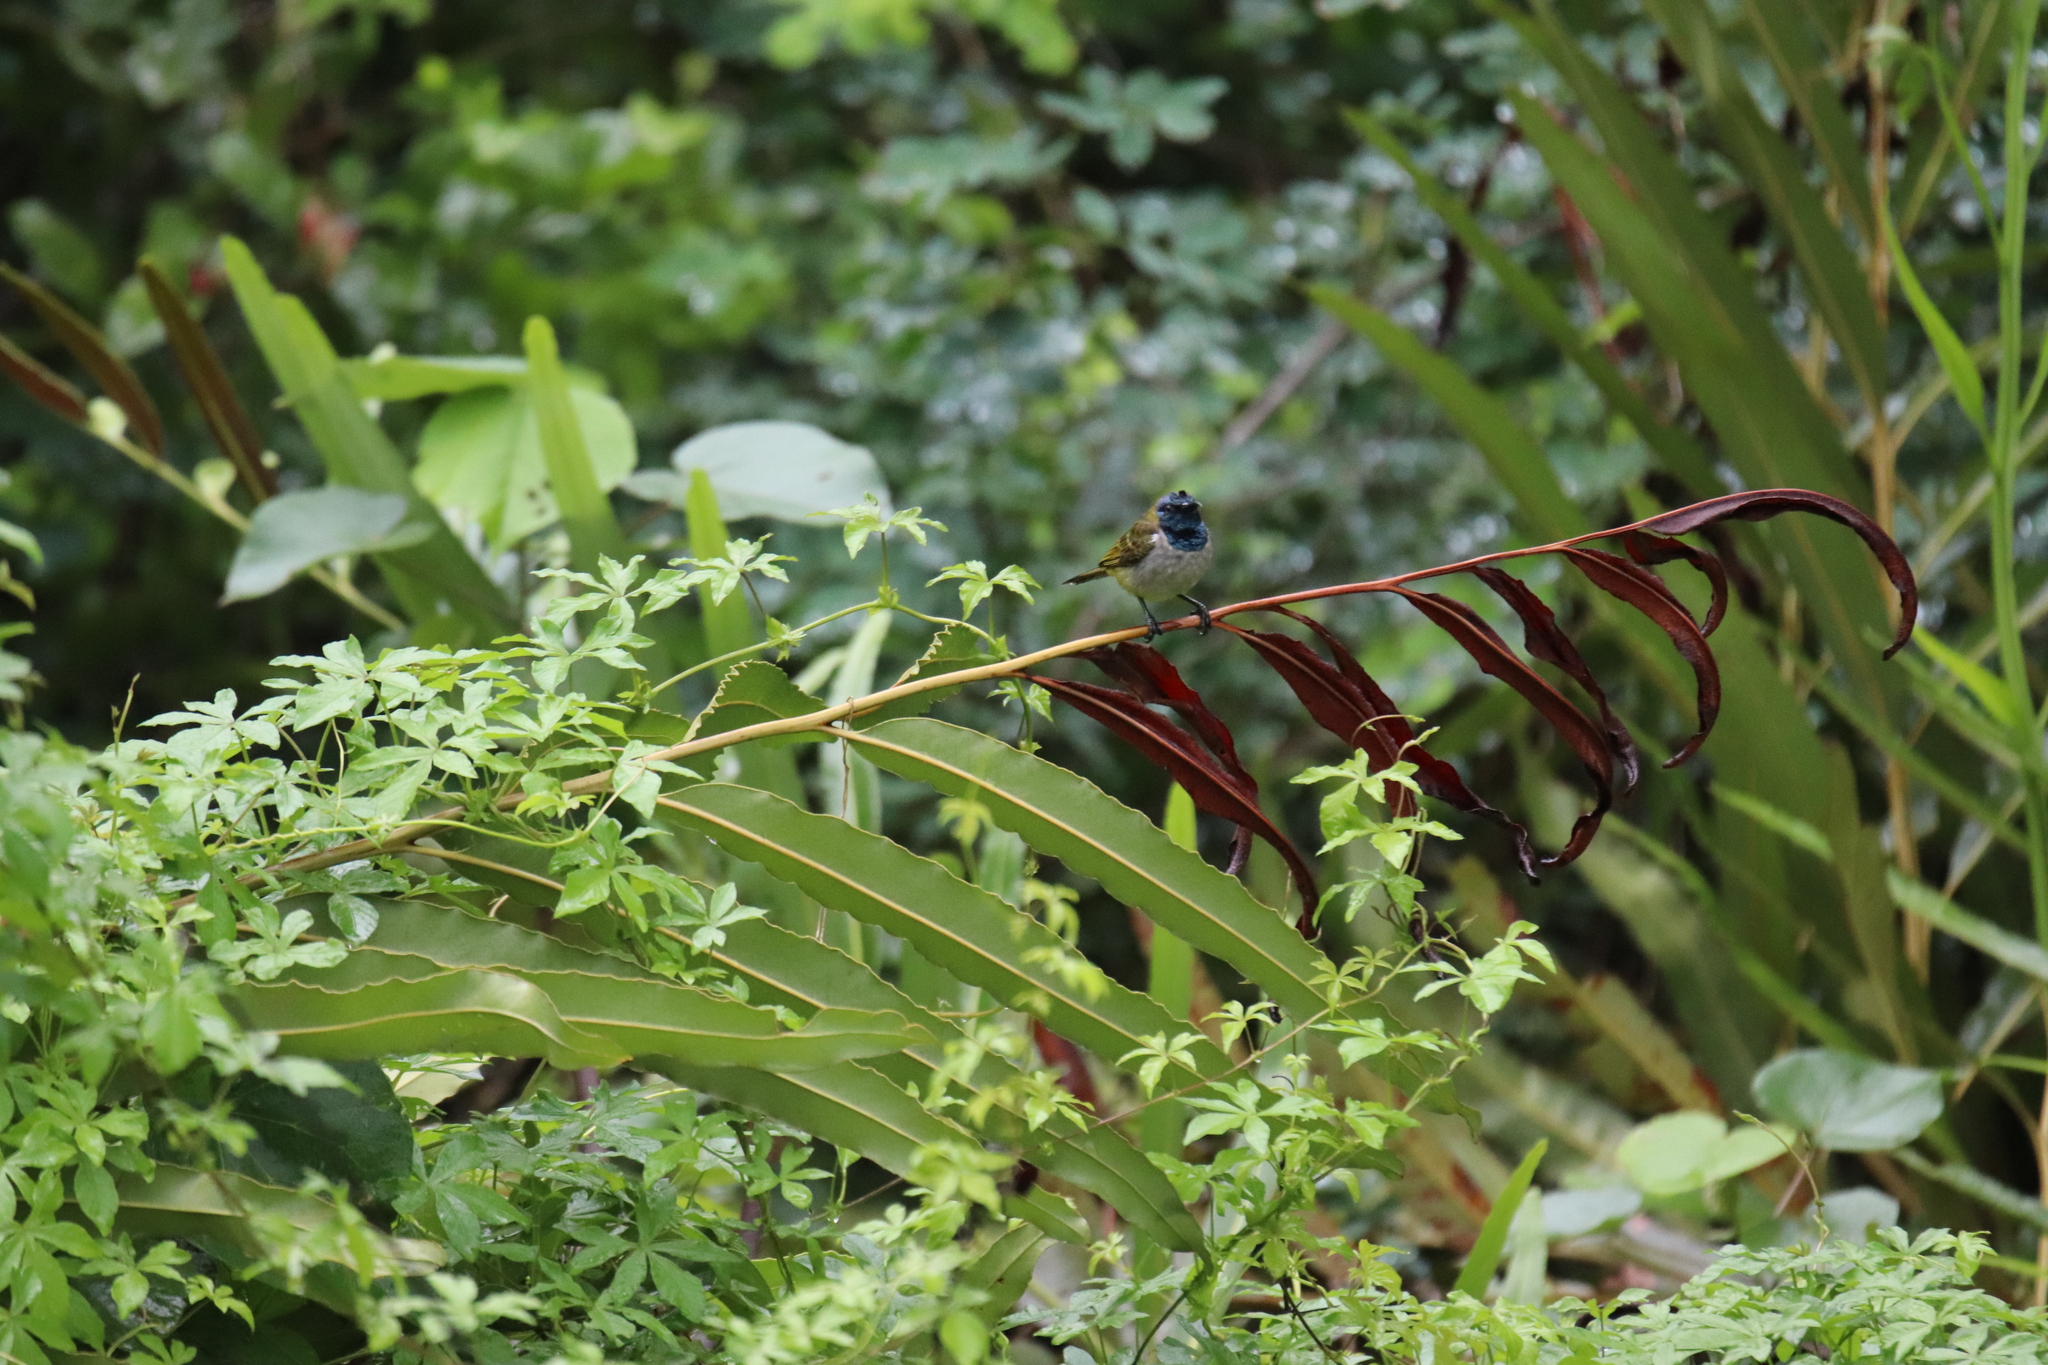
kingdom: Animalia
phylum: Chordata
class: Aves
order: Passeriformes
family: Nectariniidae
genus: Anabathmis
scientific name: Anabathmis reichenbachii
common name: Reichenbach's sunbird
